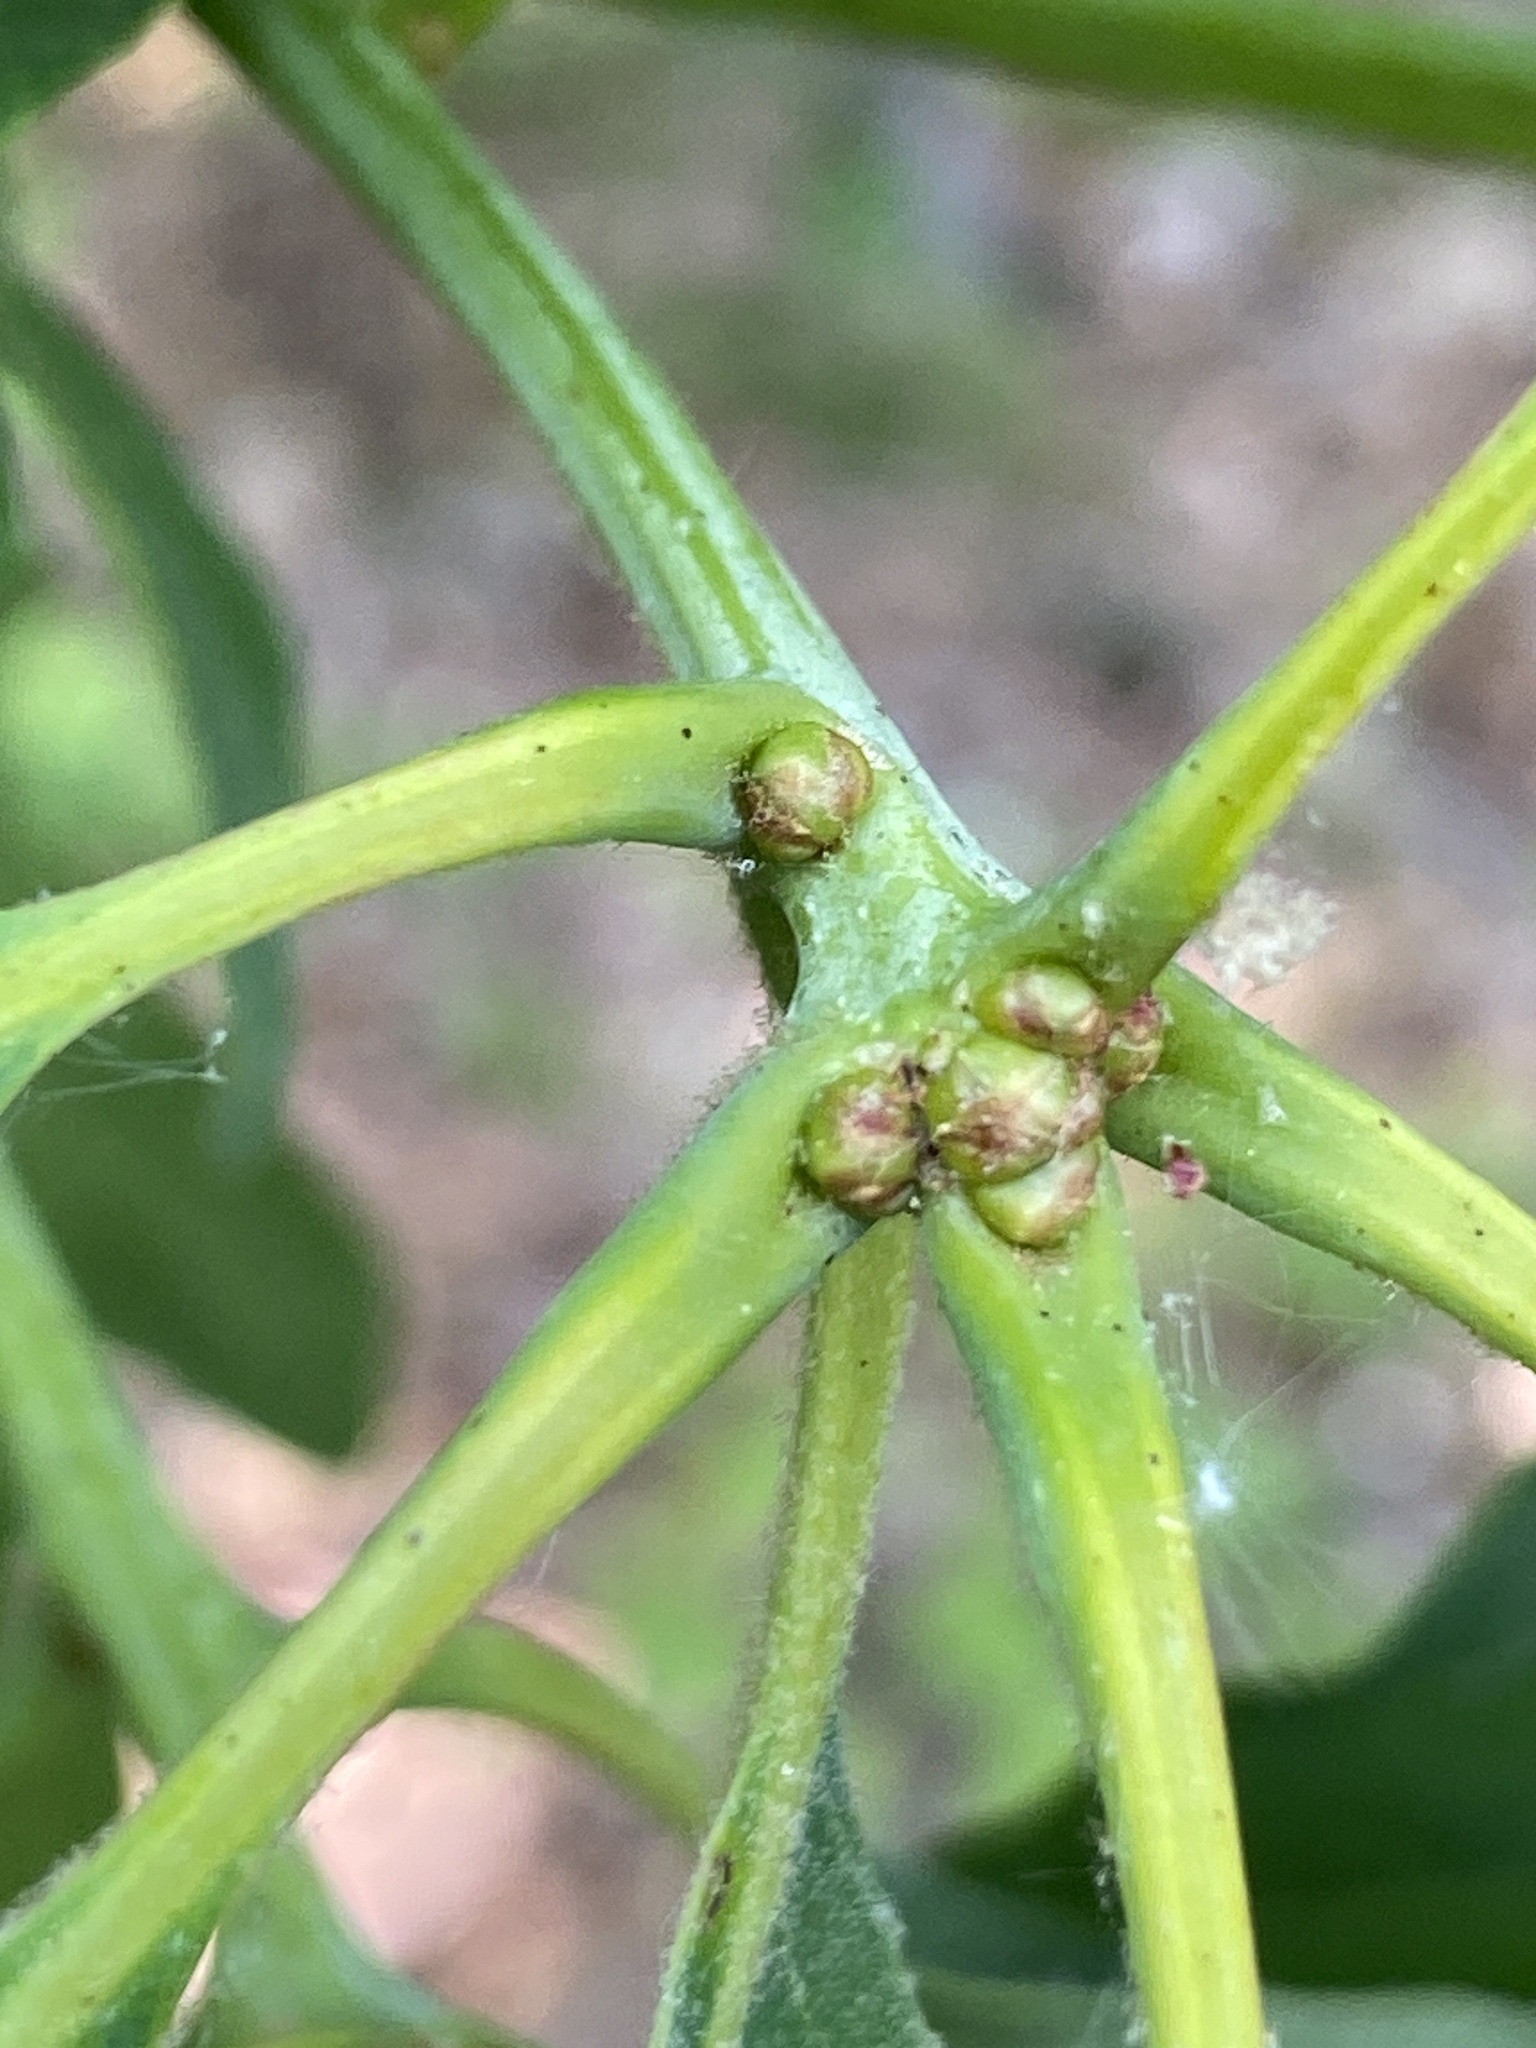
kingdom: Plantae
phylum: Tracheophyta
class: Magnoliopsida
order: Fagales
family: Fagaceae
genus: Quercus
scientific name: Quercus alba
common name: White oak
